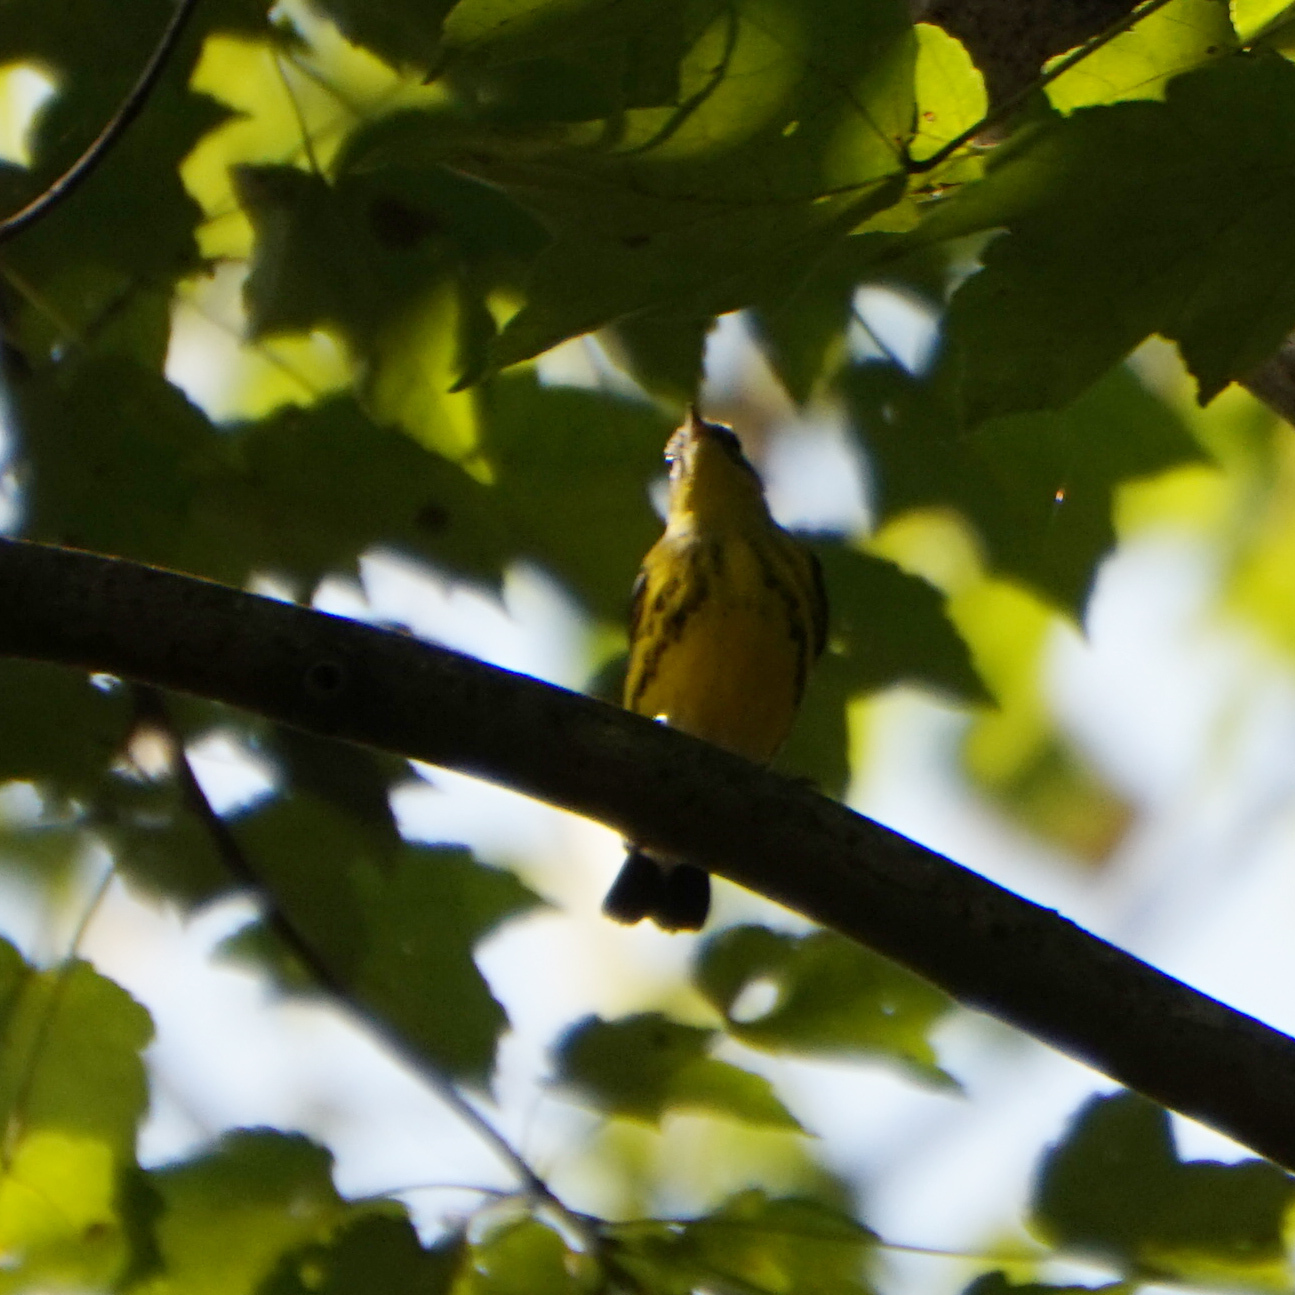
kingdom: Animalia
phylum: Chordata
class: Aves
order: Passeriformes
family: Parulidae
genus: Setophaga
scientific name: Setophaga magnolia
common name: Magnolia warbler
